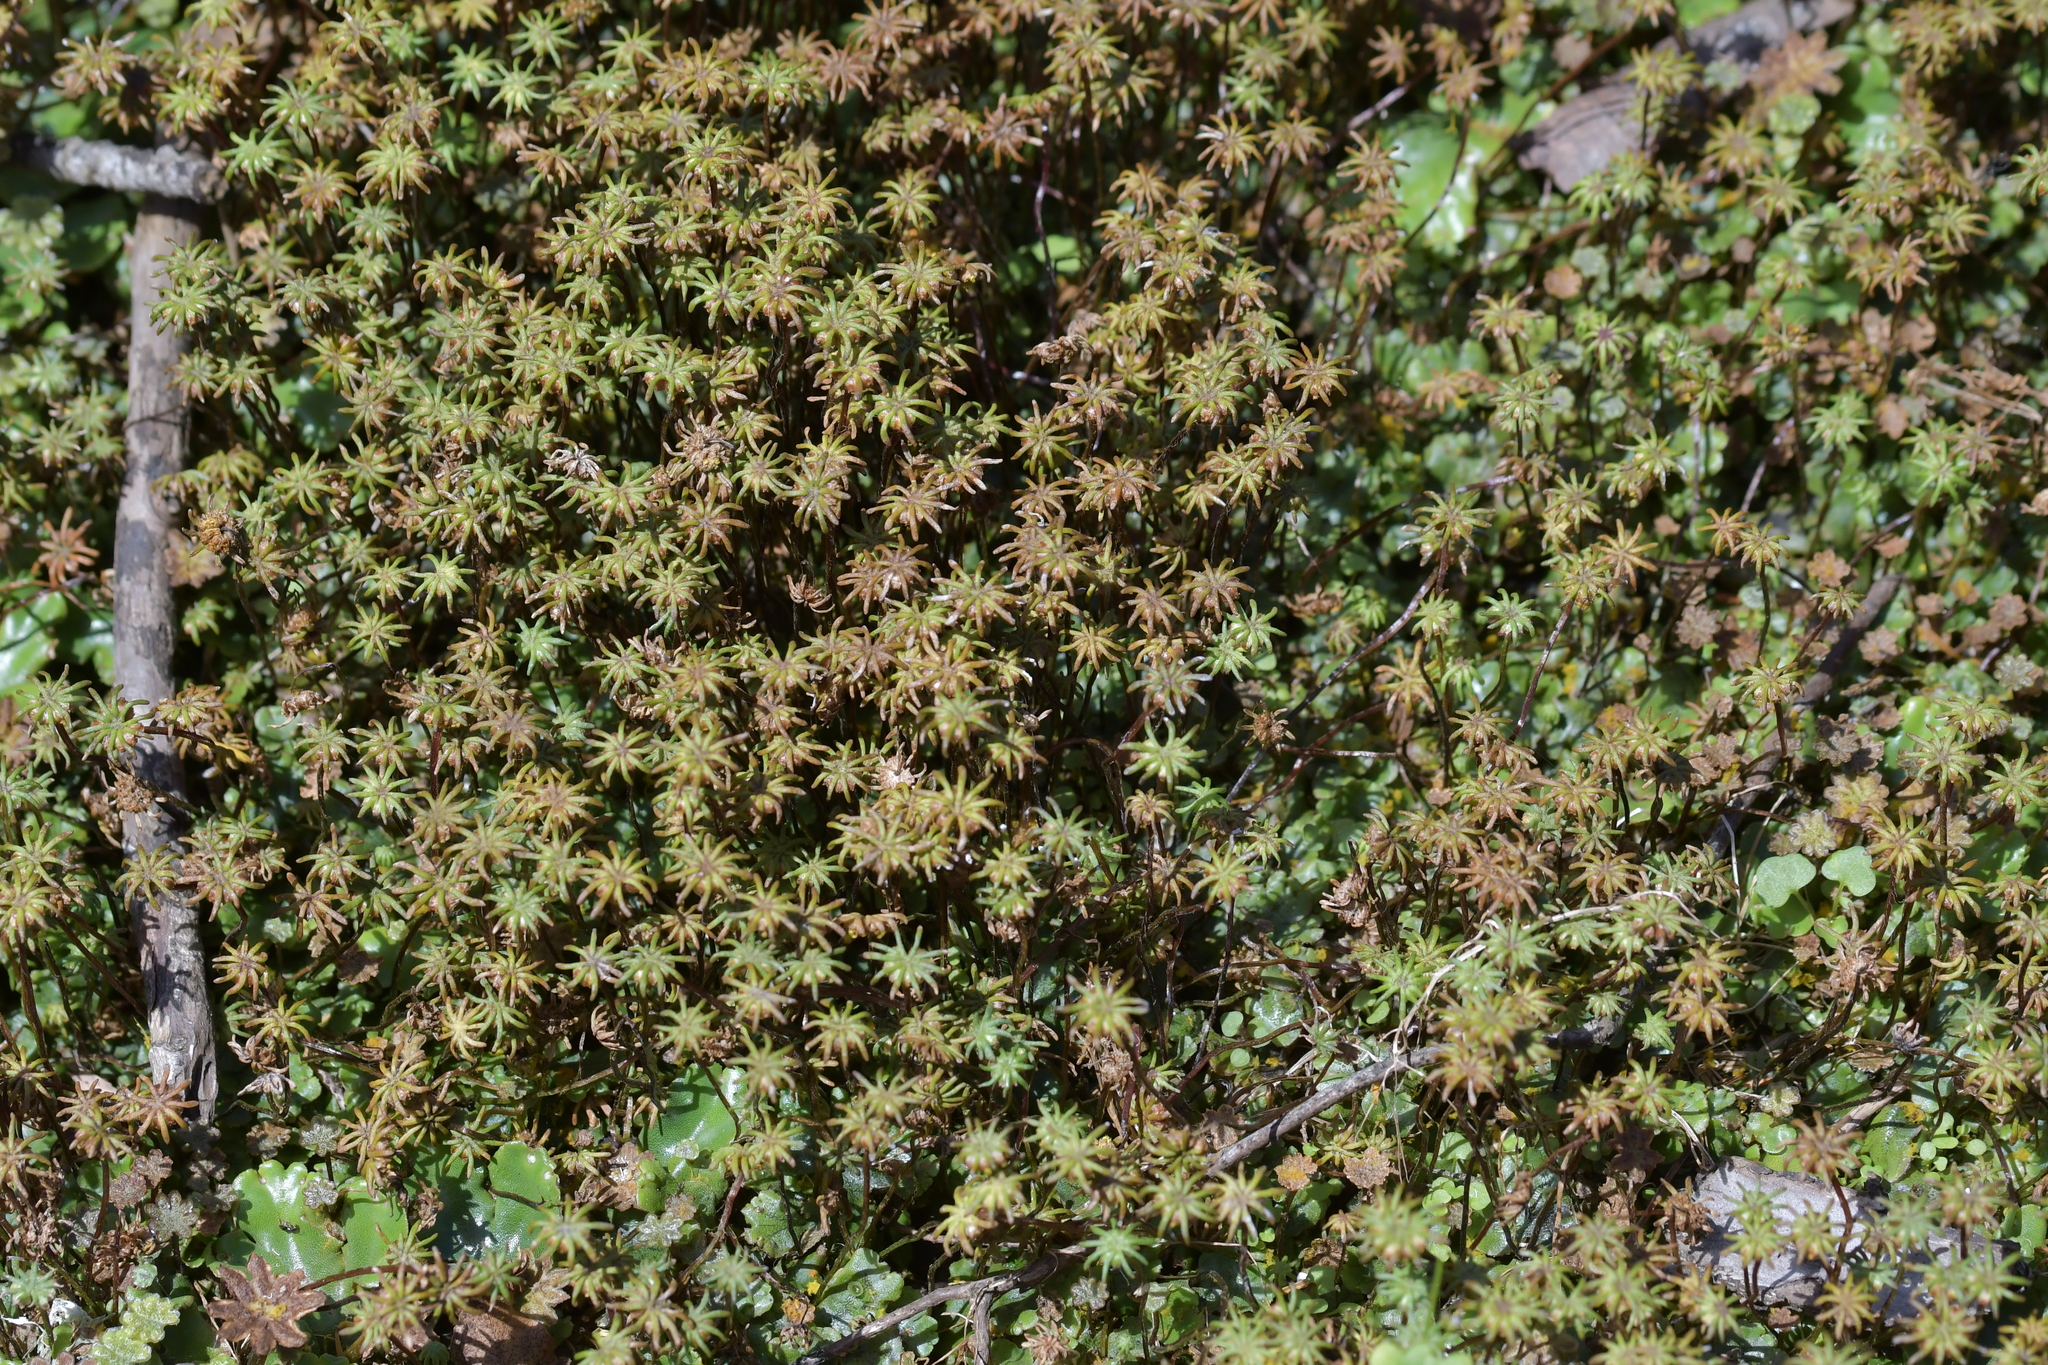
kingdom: Plantae
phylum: Marchantiophyta
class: Marchantiopsida
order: Marchantiales
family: Marchantiaceae
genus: Marchantia
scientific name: Marchantia polymorpha
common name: Common liverwort
